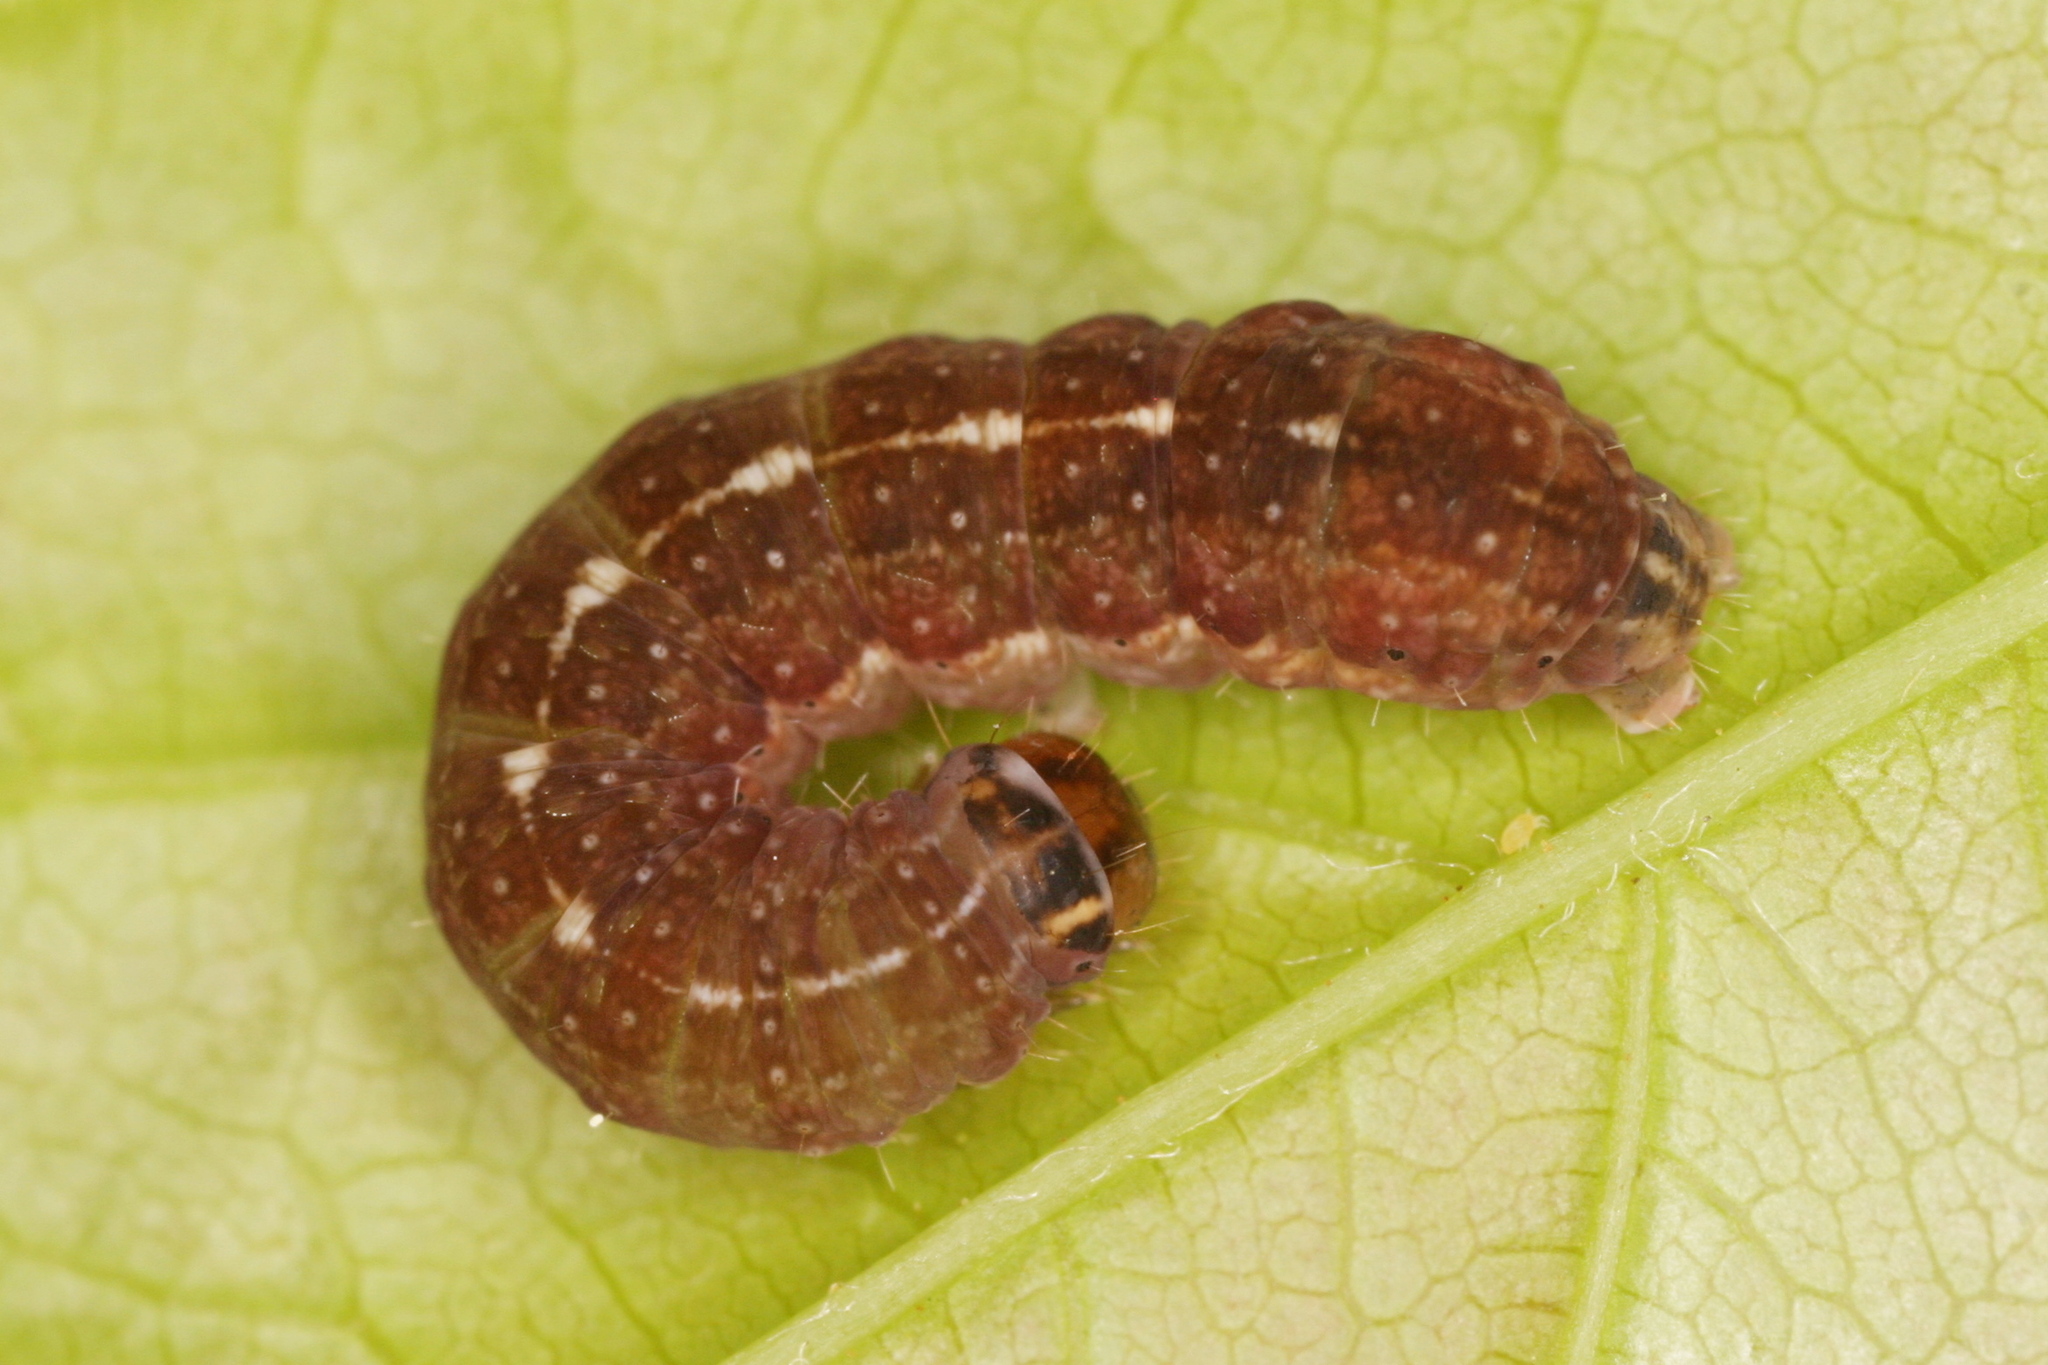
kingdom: Animalia
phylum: Arthropoda
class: Insecta
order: Lepidoptera
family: Noctuidae
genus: Agrochola
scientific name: Agrochola macilenta
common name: Yellow-line quaker
